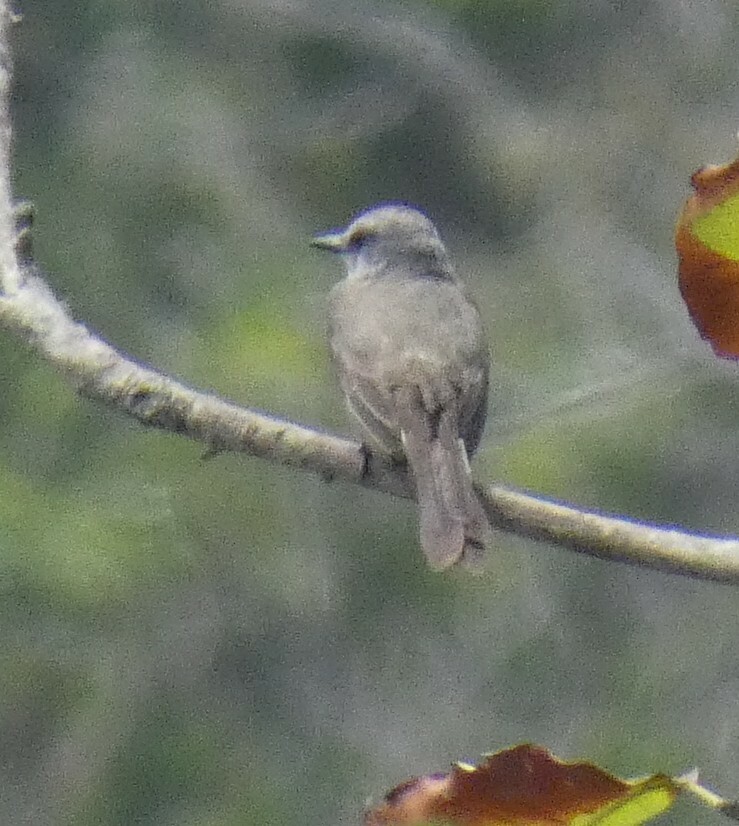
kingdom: Animalia
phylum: Chordata
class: Aves
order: Passeriformes
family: Tyrannidae
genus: Tyrannus
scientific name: Tyrannus melancholicus
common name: Tropical kingbird
